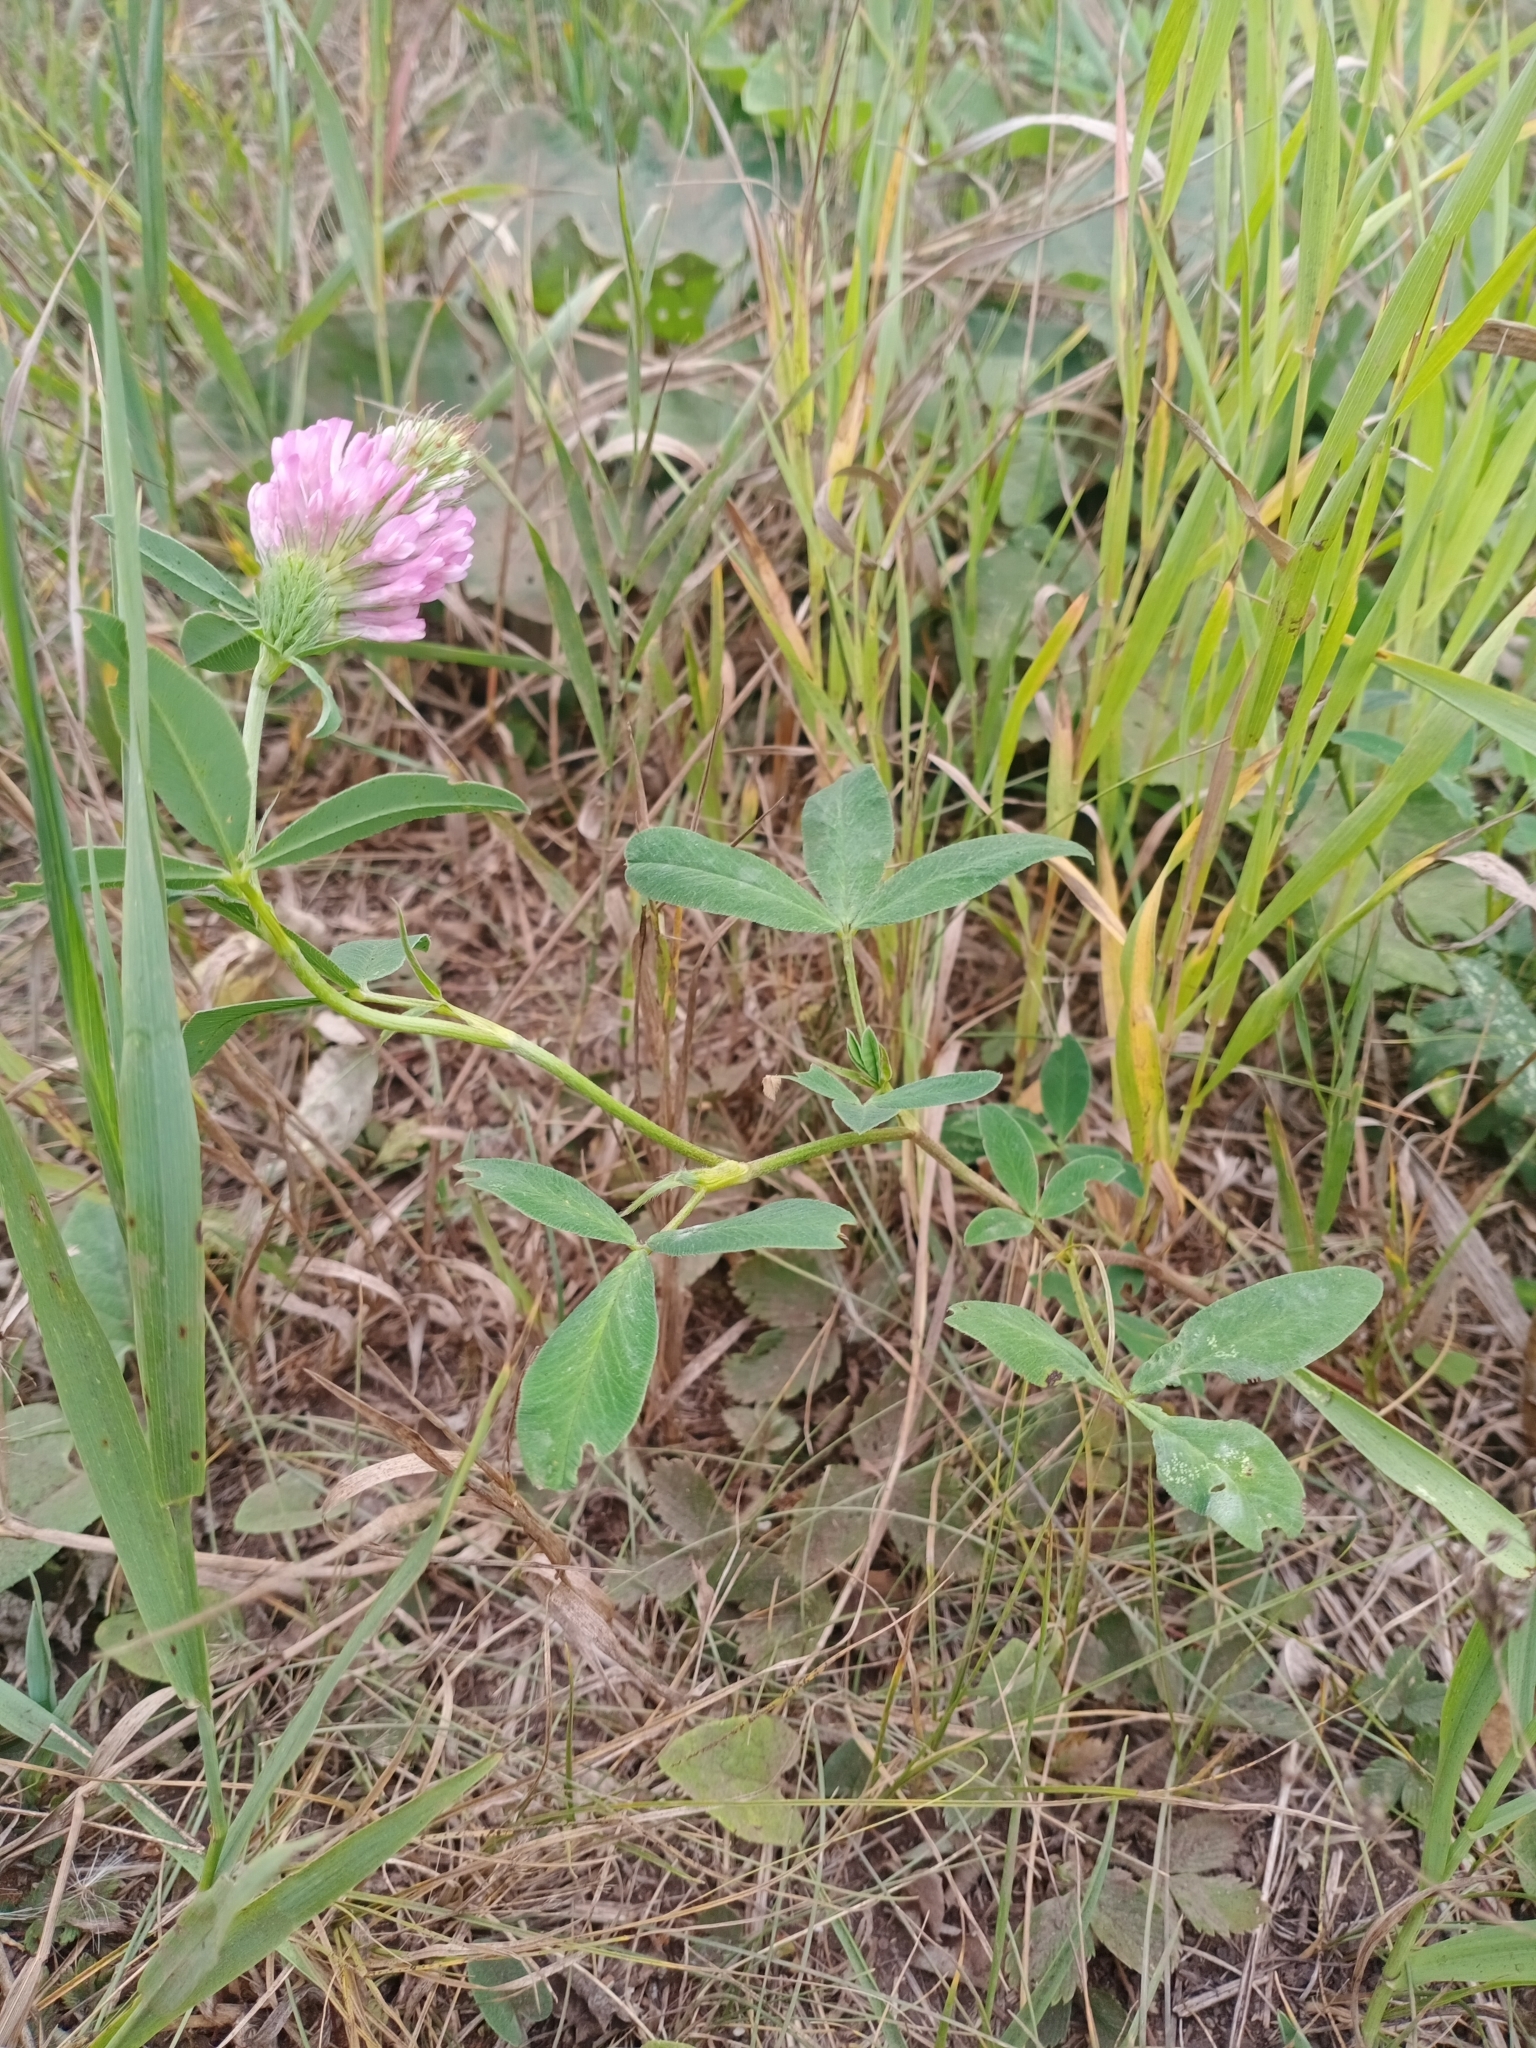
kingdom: Plantae
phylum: Tracheophyta
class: Magnoliopsida
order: Fabales
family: Fabaceae
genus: Trifolium
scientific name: Trifolium medium
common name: Zigzag clover
